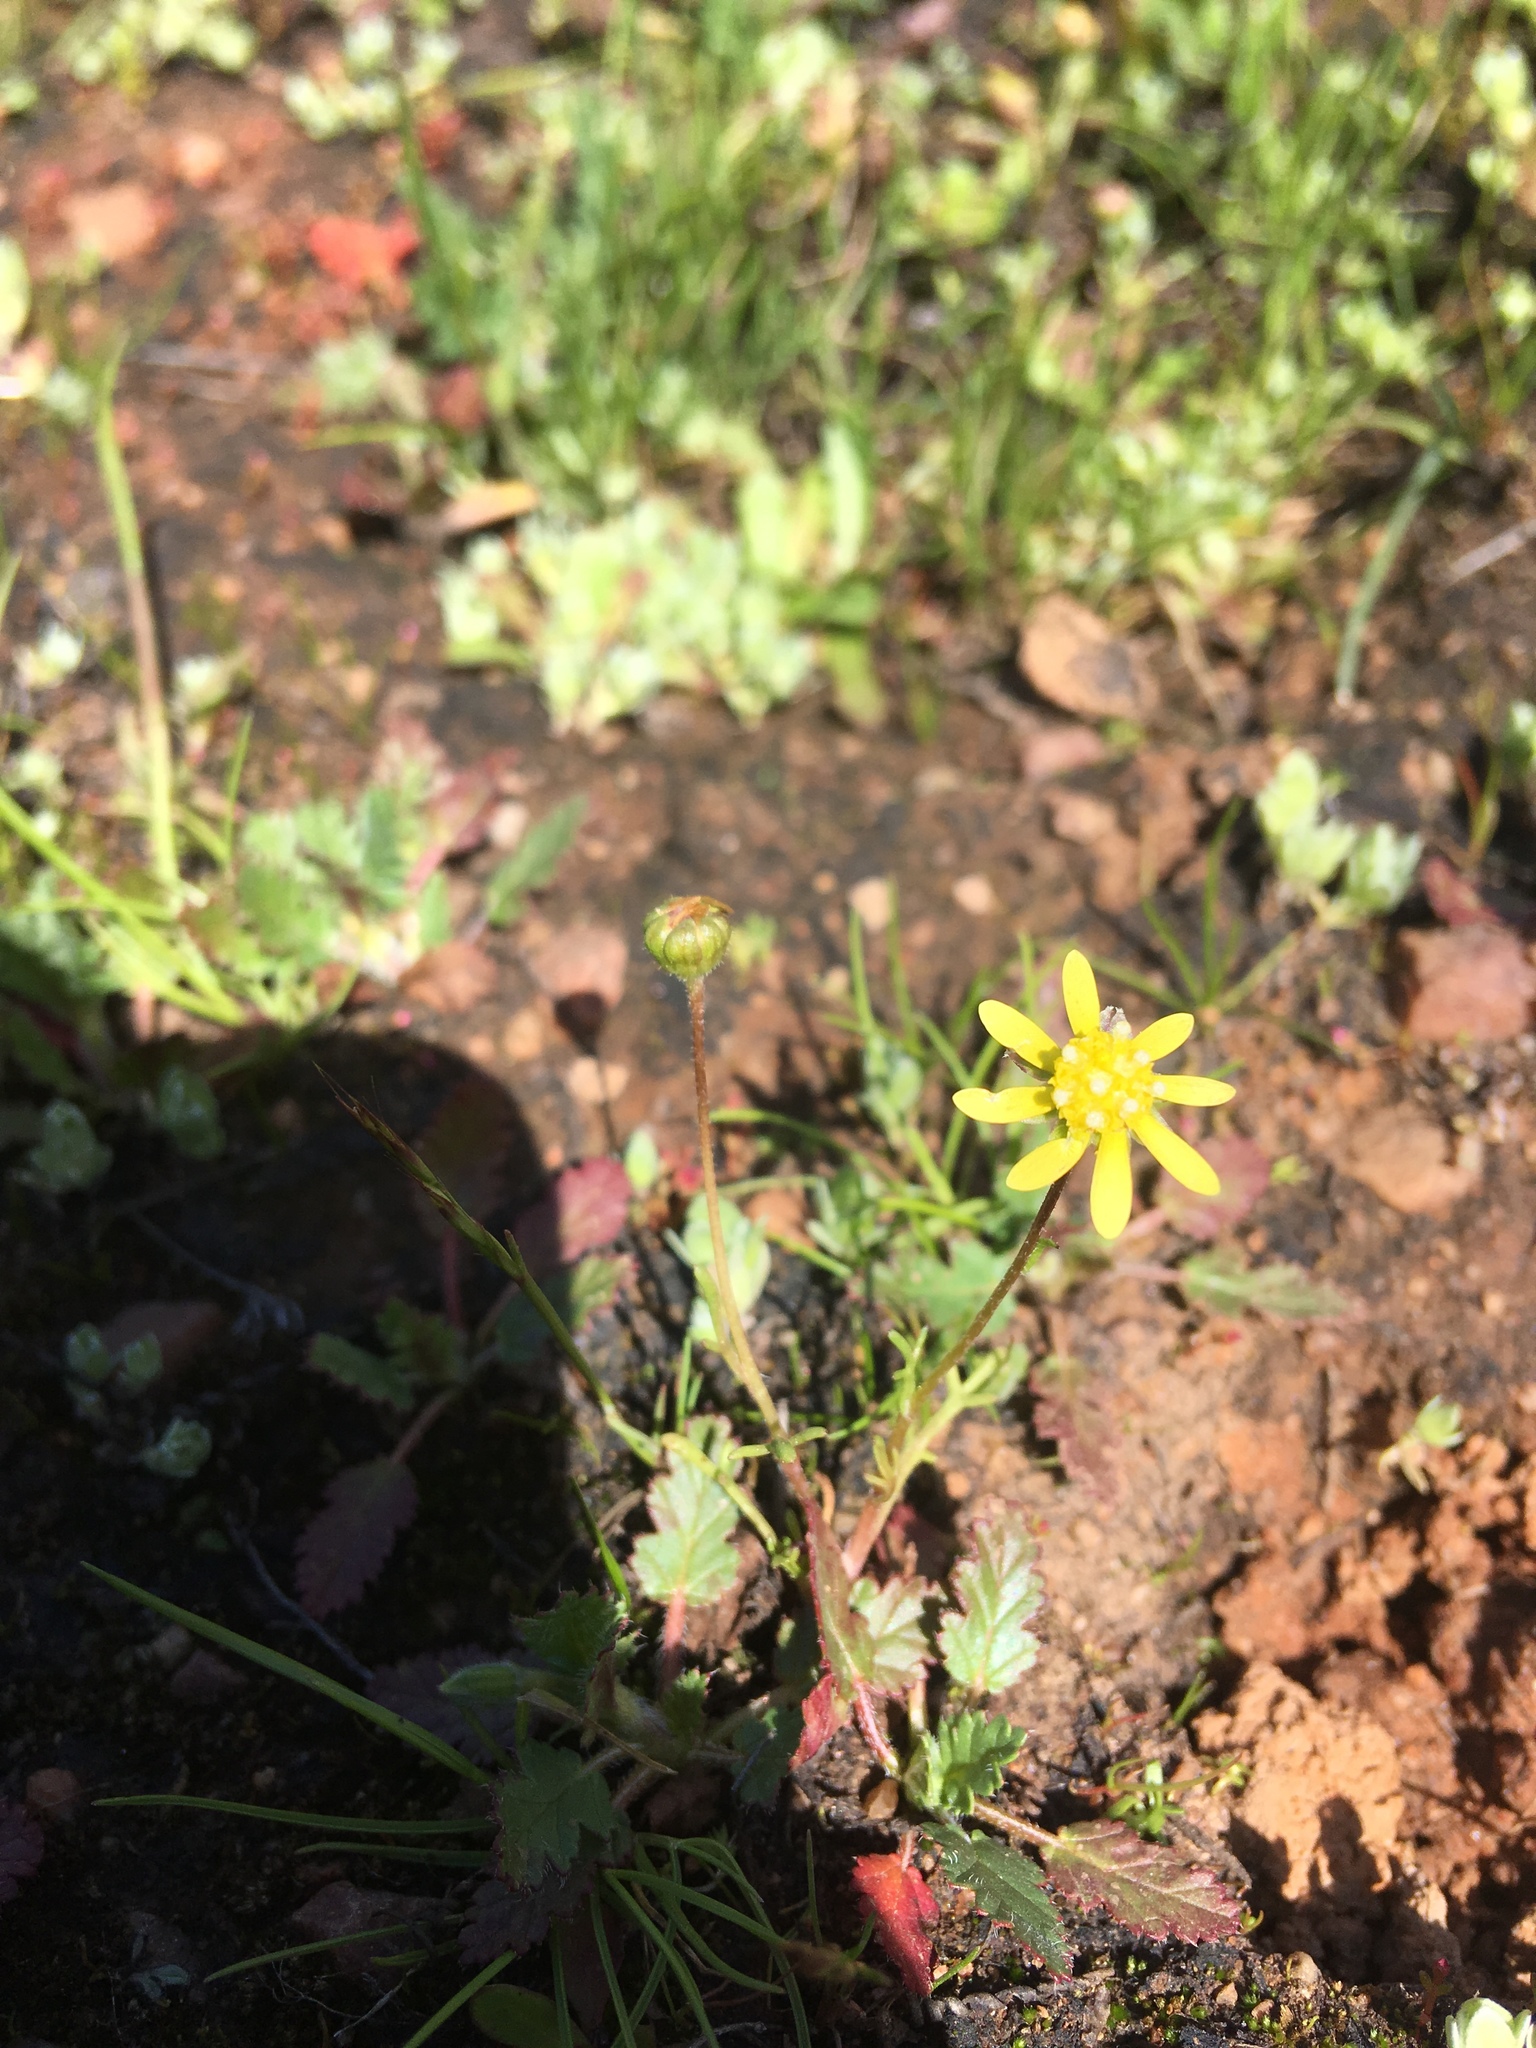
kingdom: Plantae
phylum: Tracheophyta
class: Magnoliopsida
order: Asterales
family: Asteraceae
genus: Blennosperma
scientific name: Blennosperma nanum
